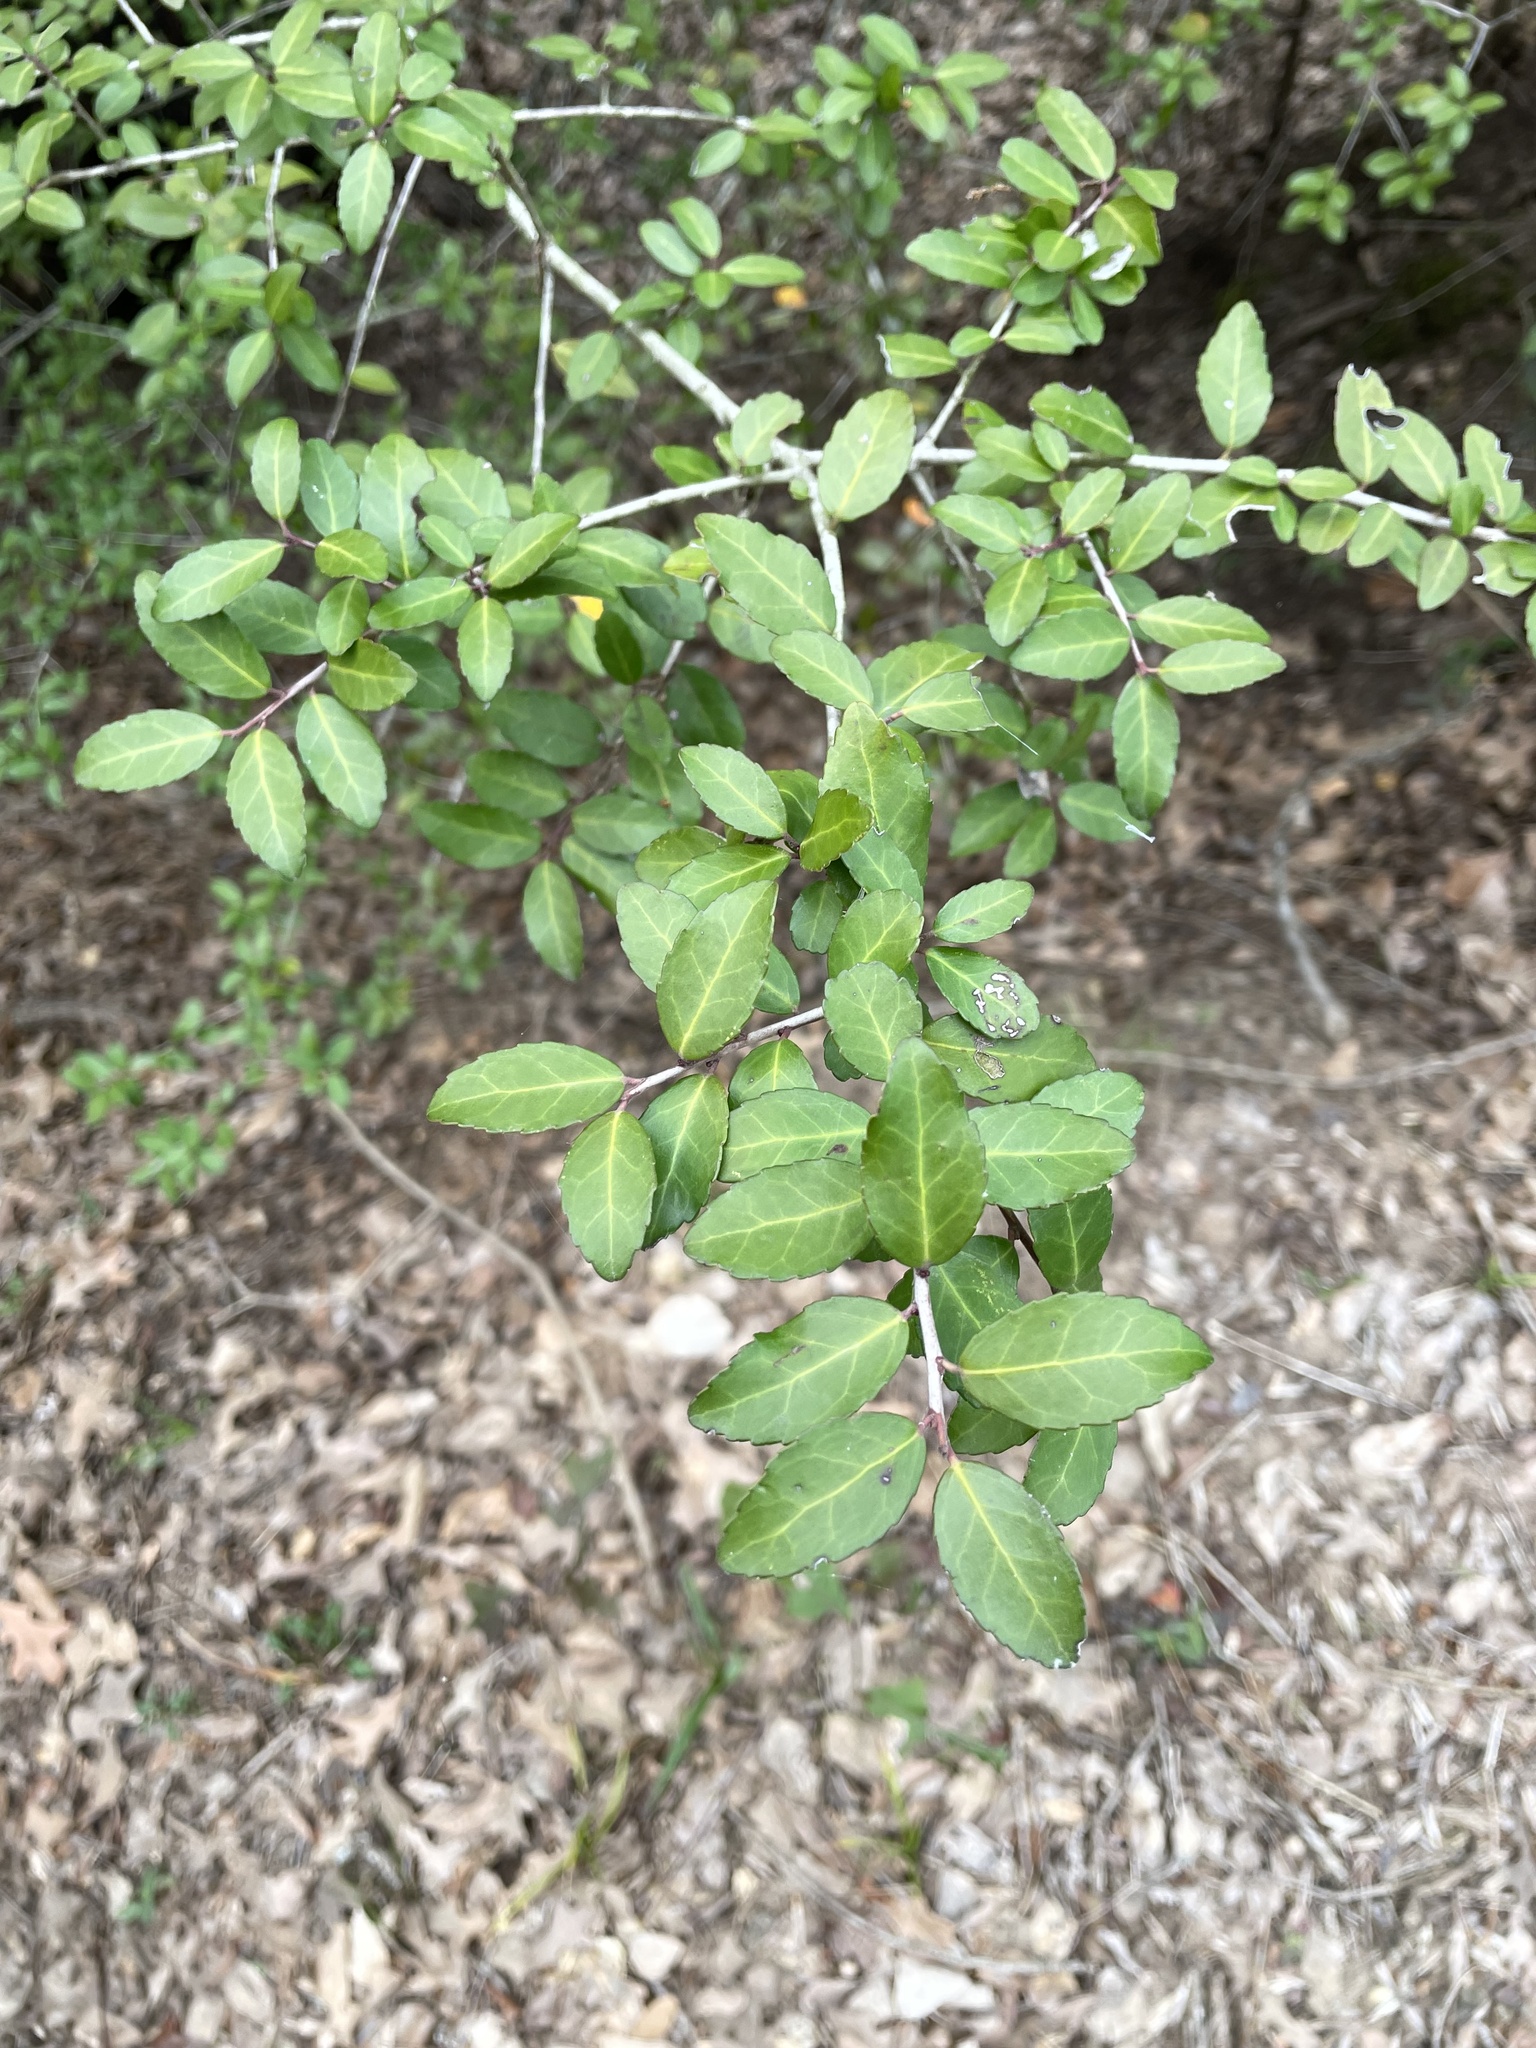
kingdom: Plantae
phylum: Tracheophyta
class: Magnoliopsida
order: Aquifoliales
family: Aquifoliaceae
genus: Ilex
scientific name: Ilex vomitoria
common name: Yaupon holly
